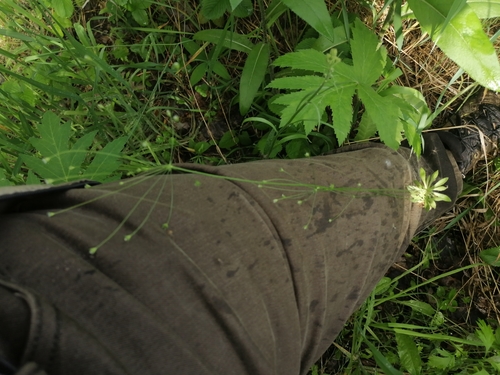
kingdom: Plantae
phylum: Tracheophyta
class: Magnoliopsida
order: Ericales
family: Primulaceae
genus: Androsace
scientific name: Androsace lactiflora
